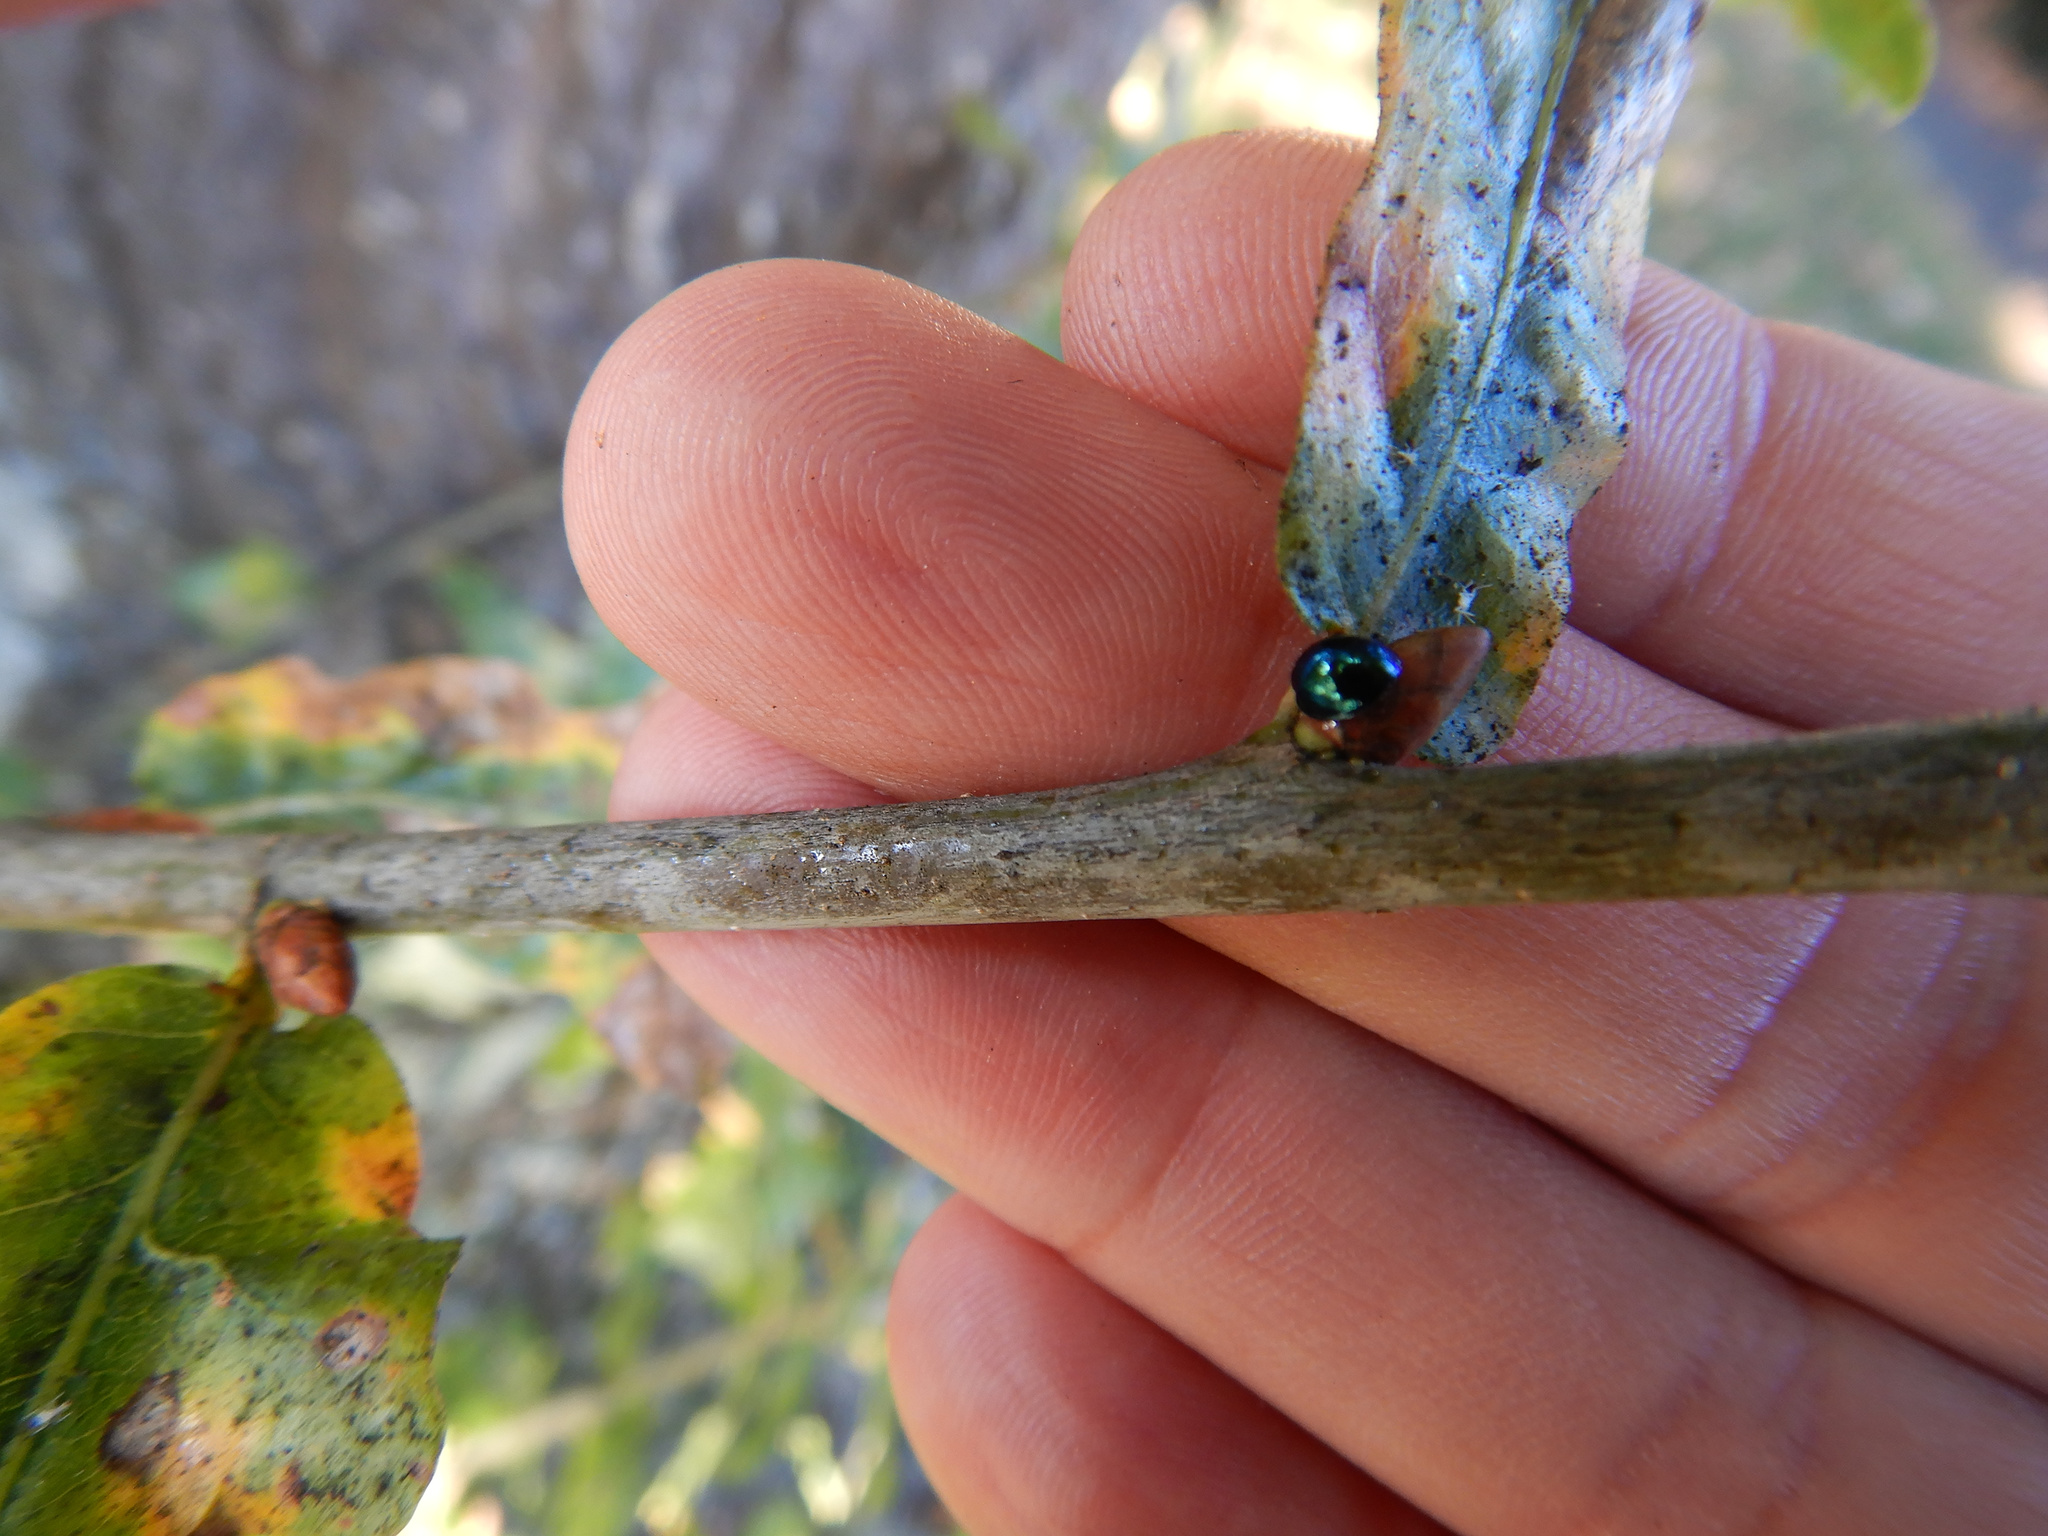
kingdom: Animalia
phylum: Arthropoda
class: Insecta
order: Coleoptera
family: Coccinellidae
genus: Halmus
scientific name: Halmus chalybeus
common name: Steel blue ladybird beetle
